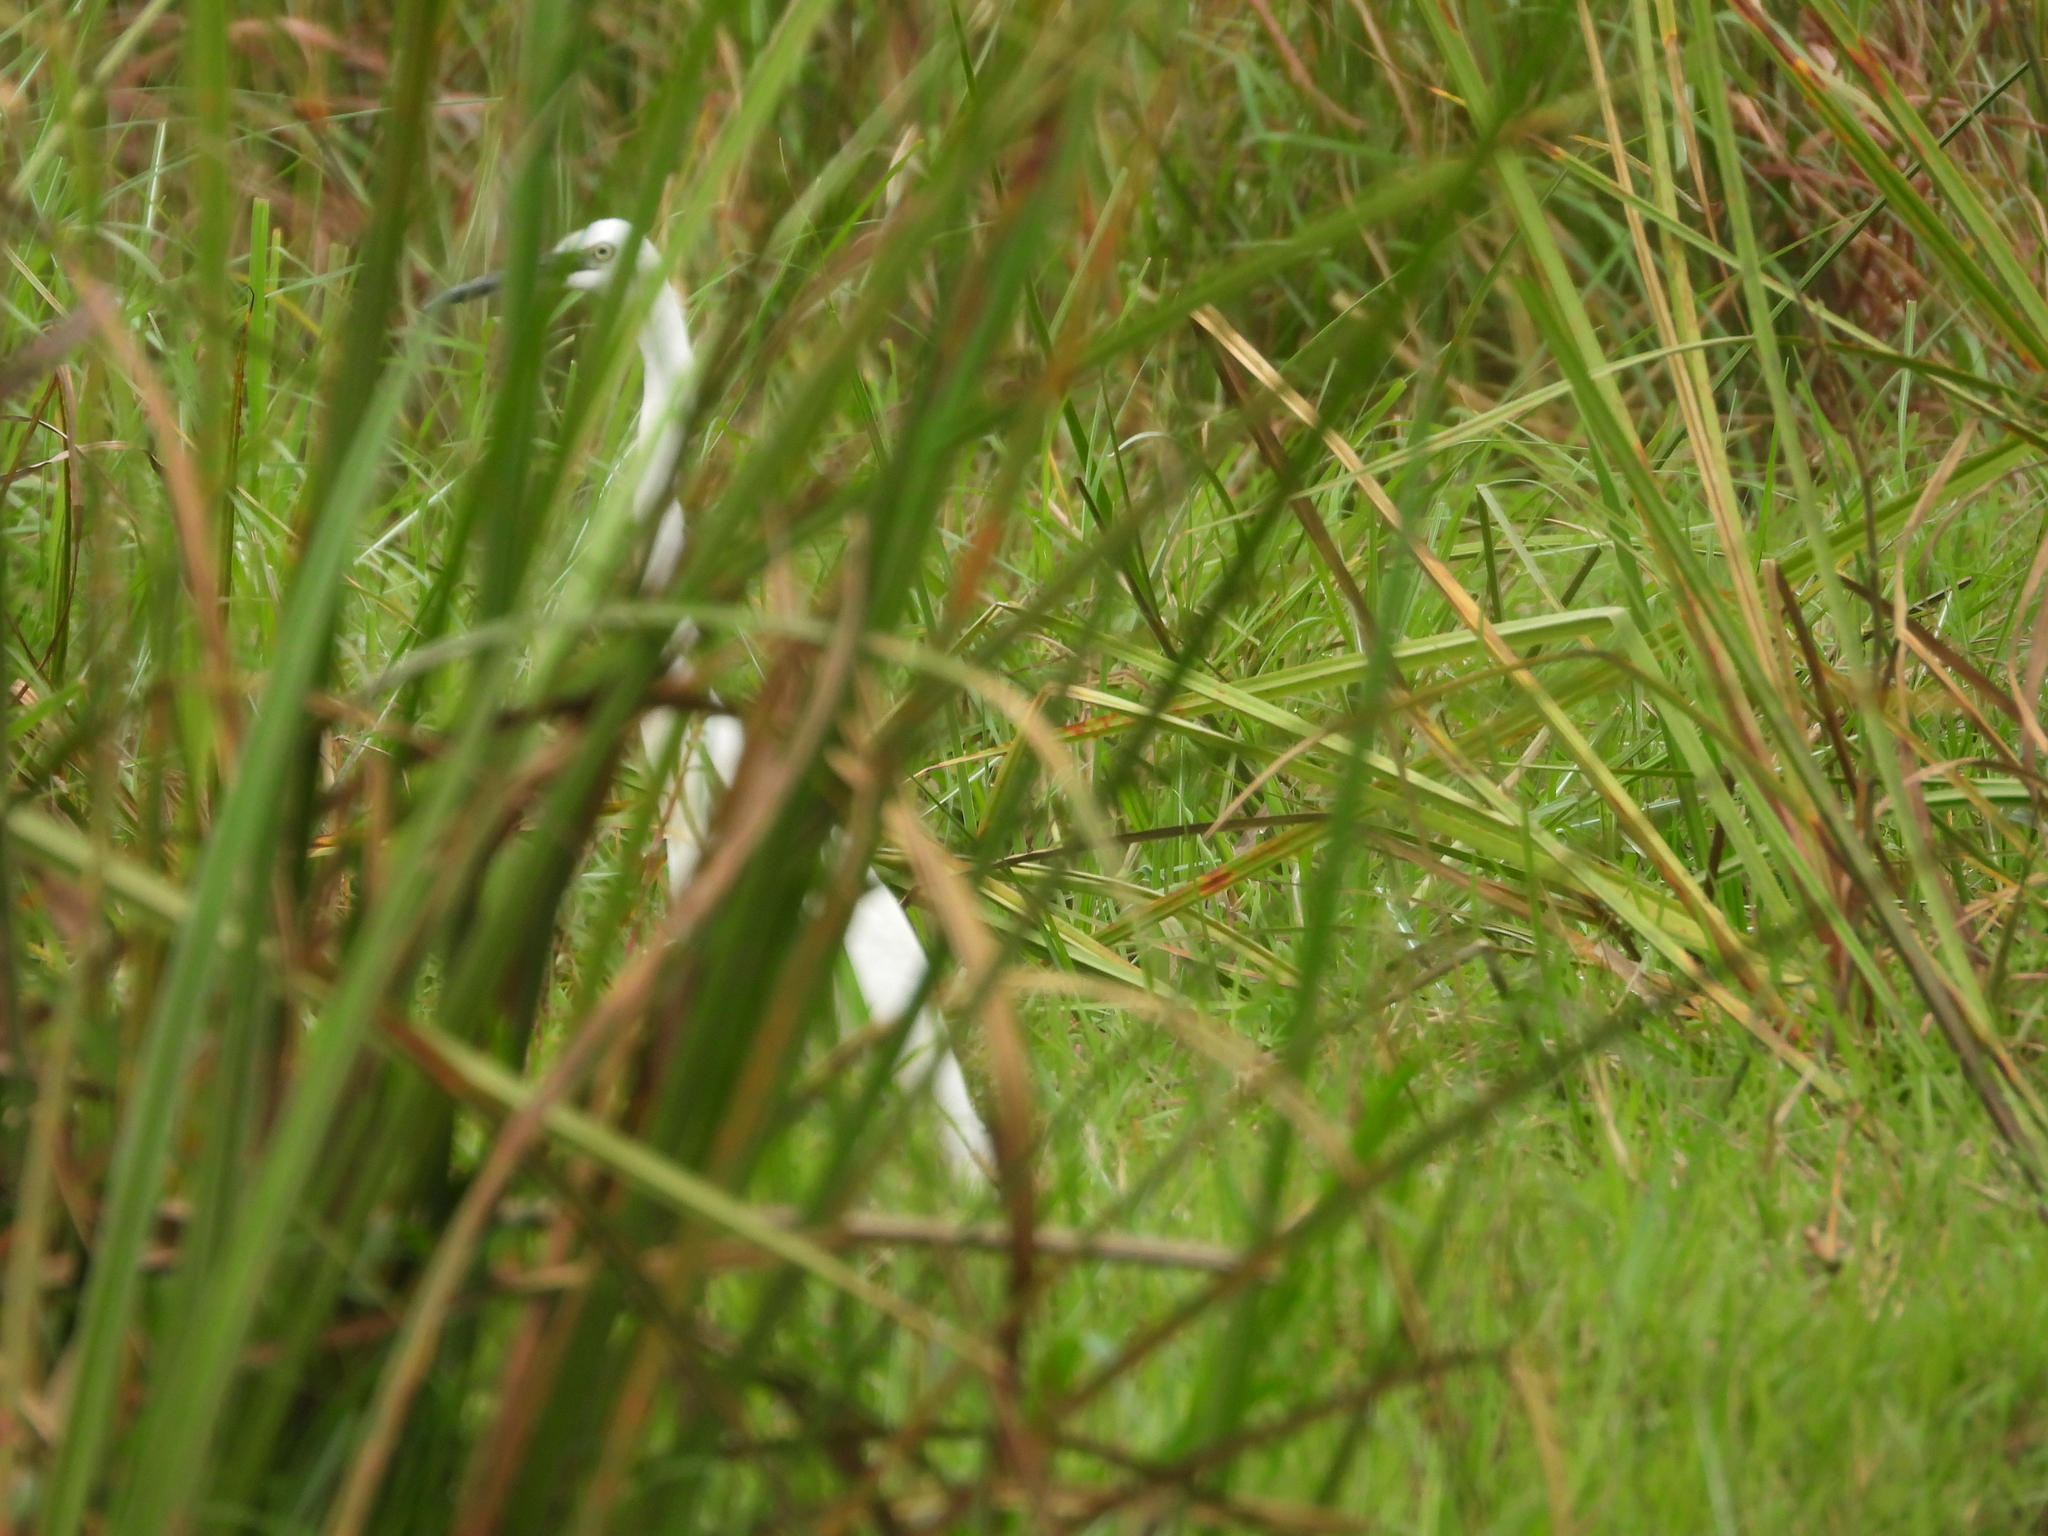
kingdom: Animalia
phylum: Chordata
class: Aves
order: Pelecaniformes
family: Ardeidae
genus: Egretta
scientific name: Egretta garzetta
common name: Little egret
